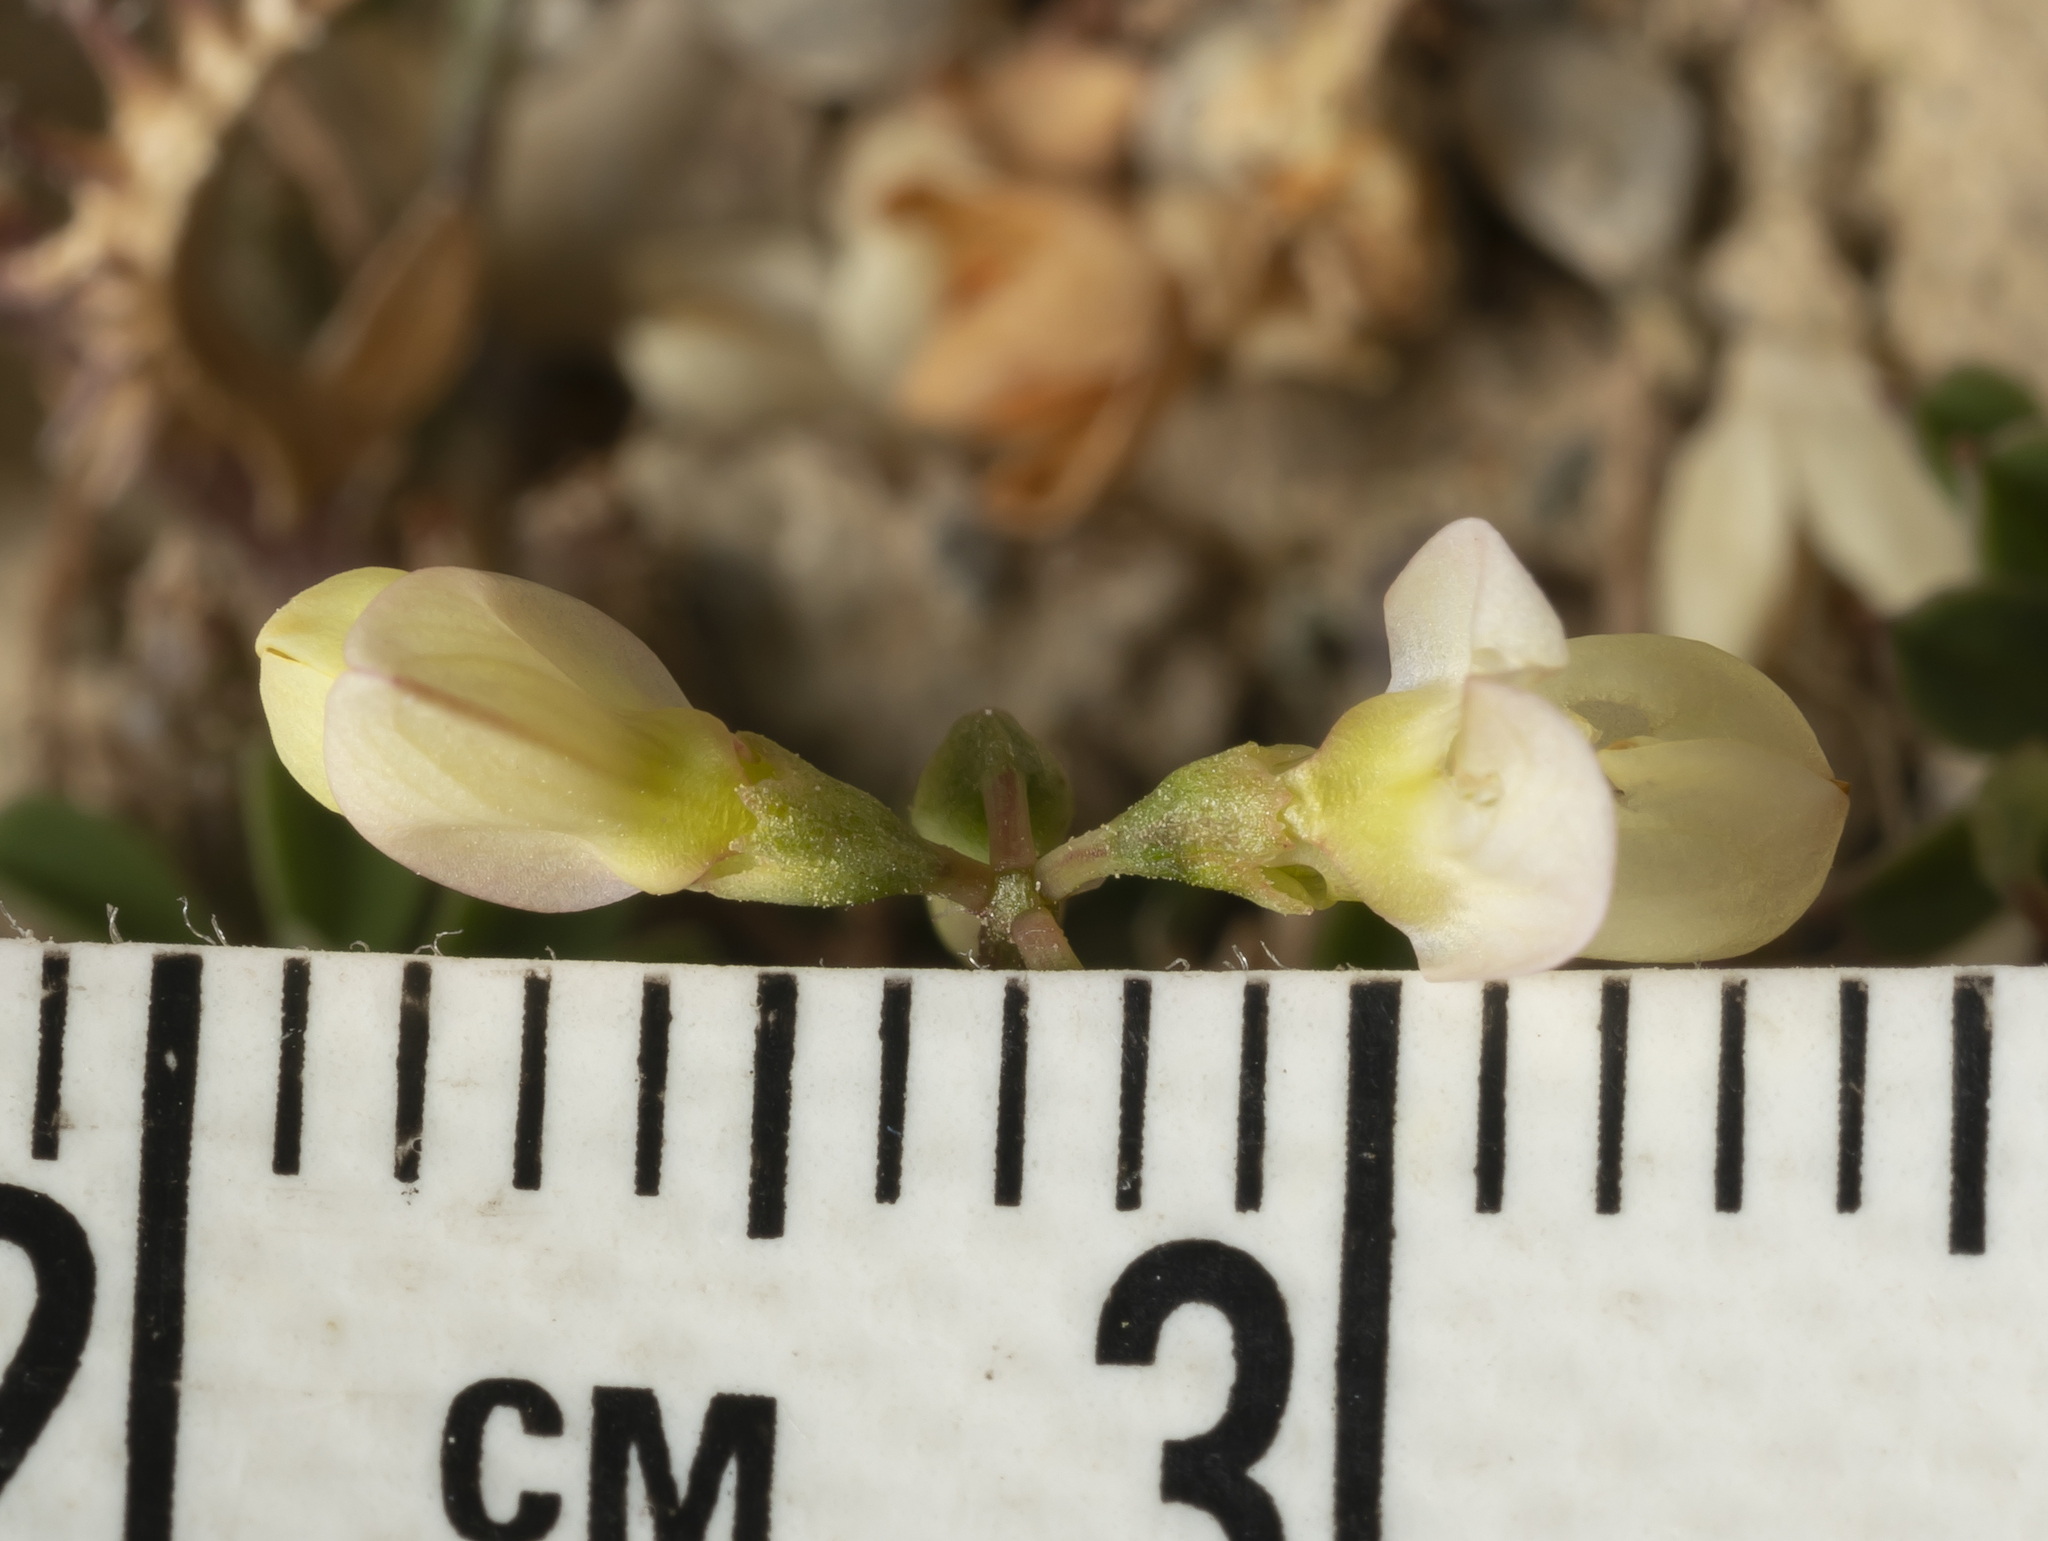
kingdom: Plantae
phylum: Tracheophyta
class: Magnoliopsida
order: Fabales
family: Fabaceae
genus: Coronilla
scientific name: Coronilla cretica
